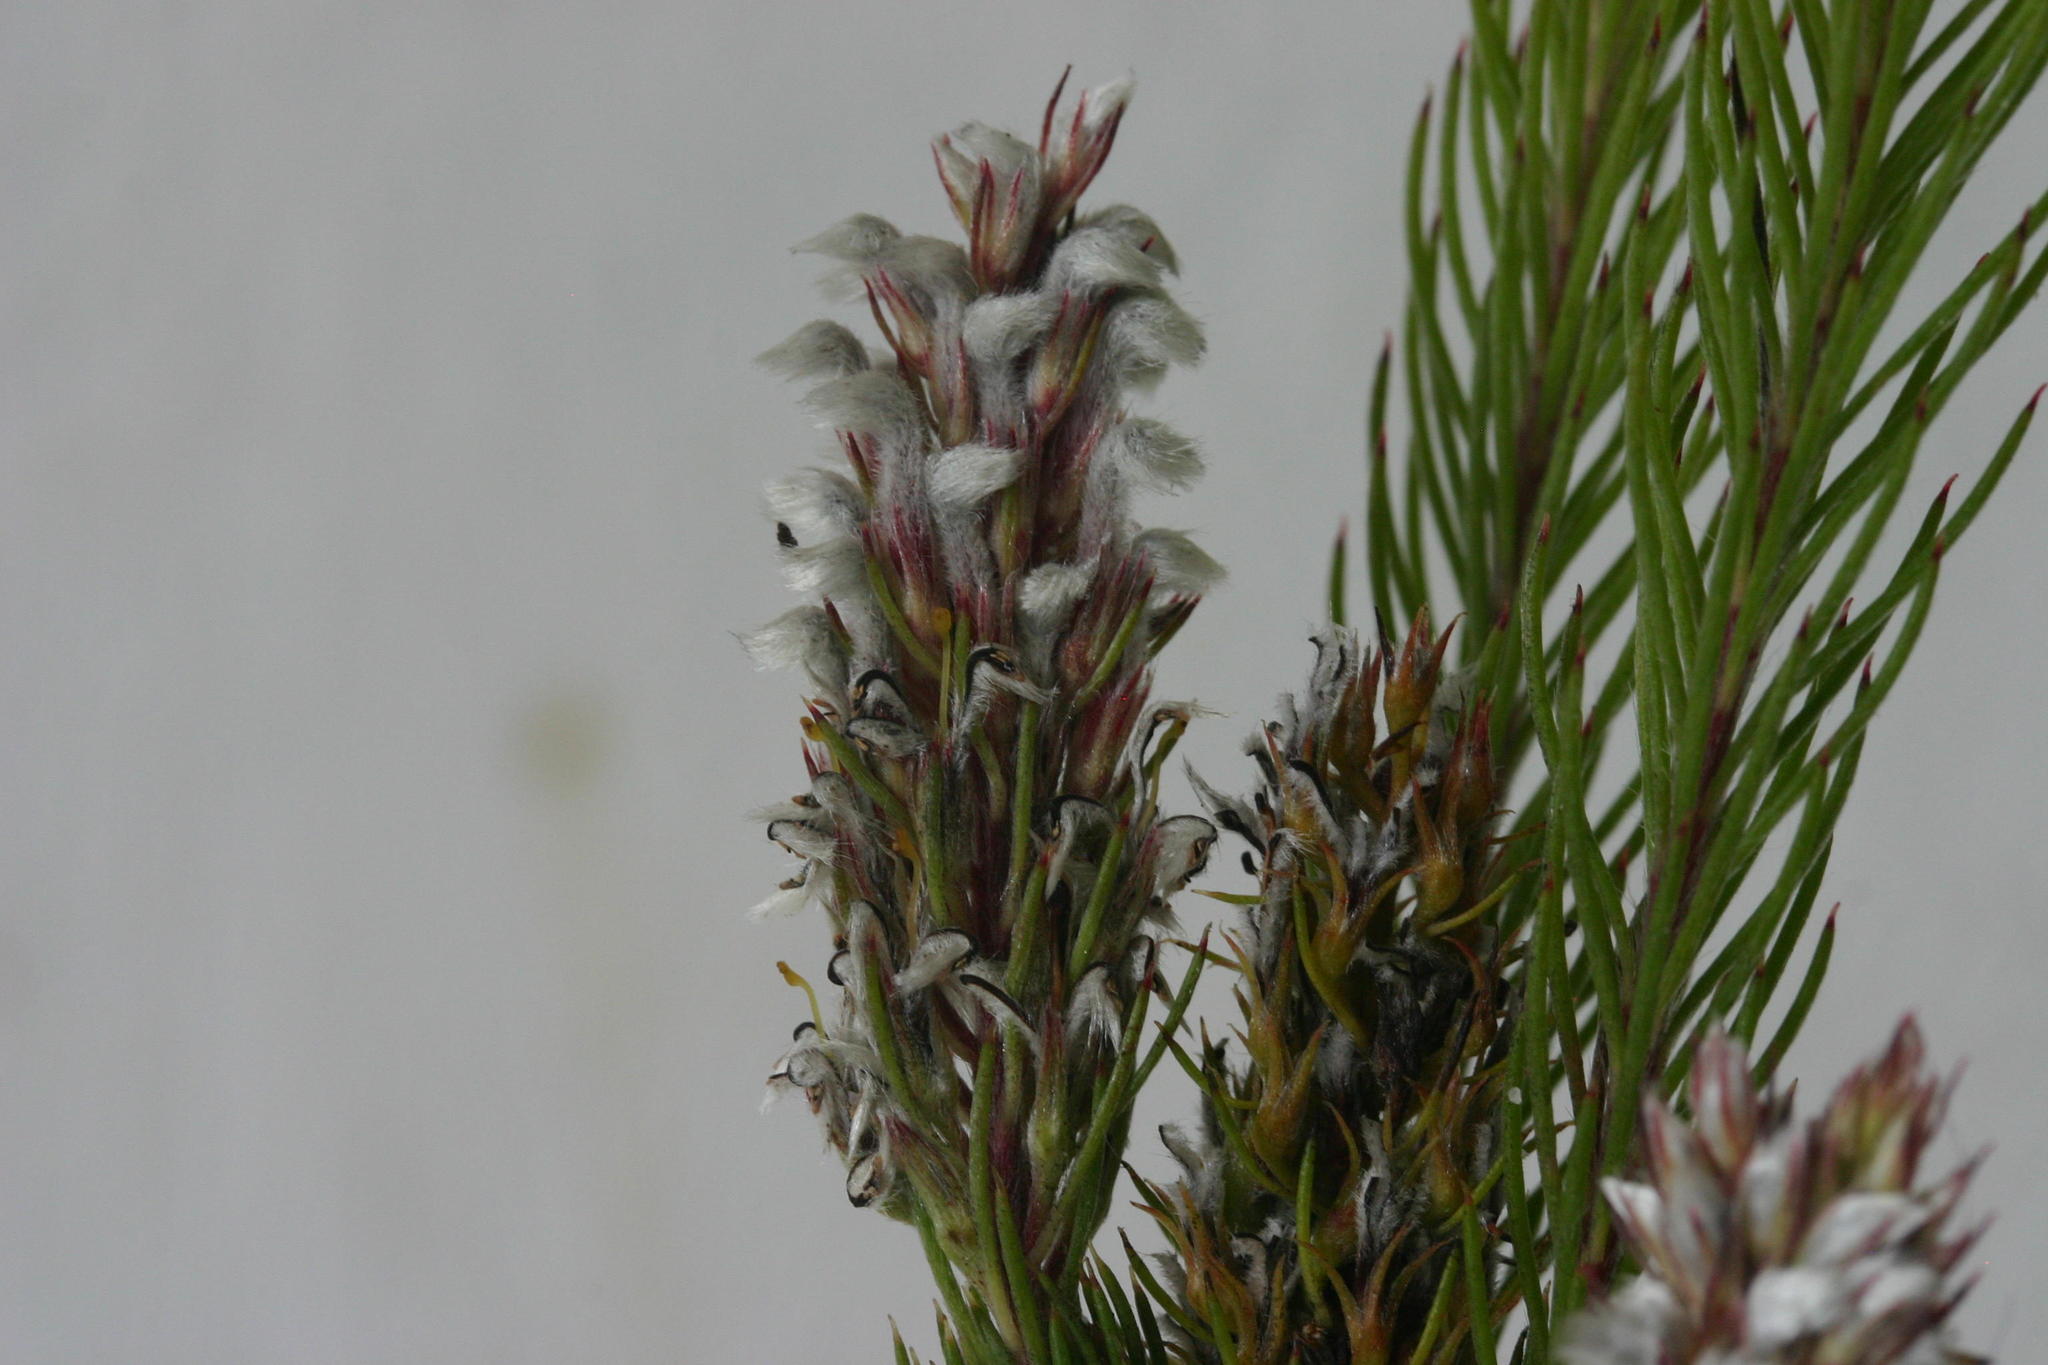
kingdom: Plantae
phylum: Tracheophyta
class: Magnoliopsida
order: Proteales
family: Proteaceae
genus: Spatalla
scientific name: Spatalla parilis
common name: Spike spoon
